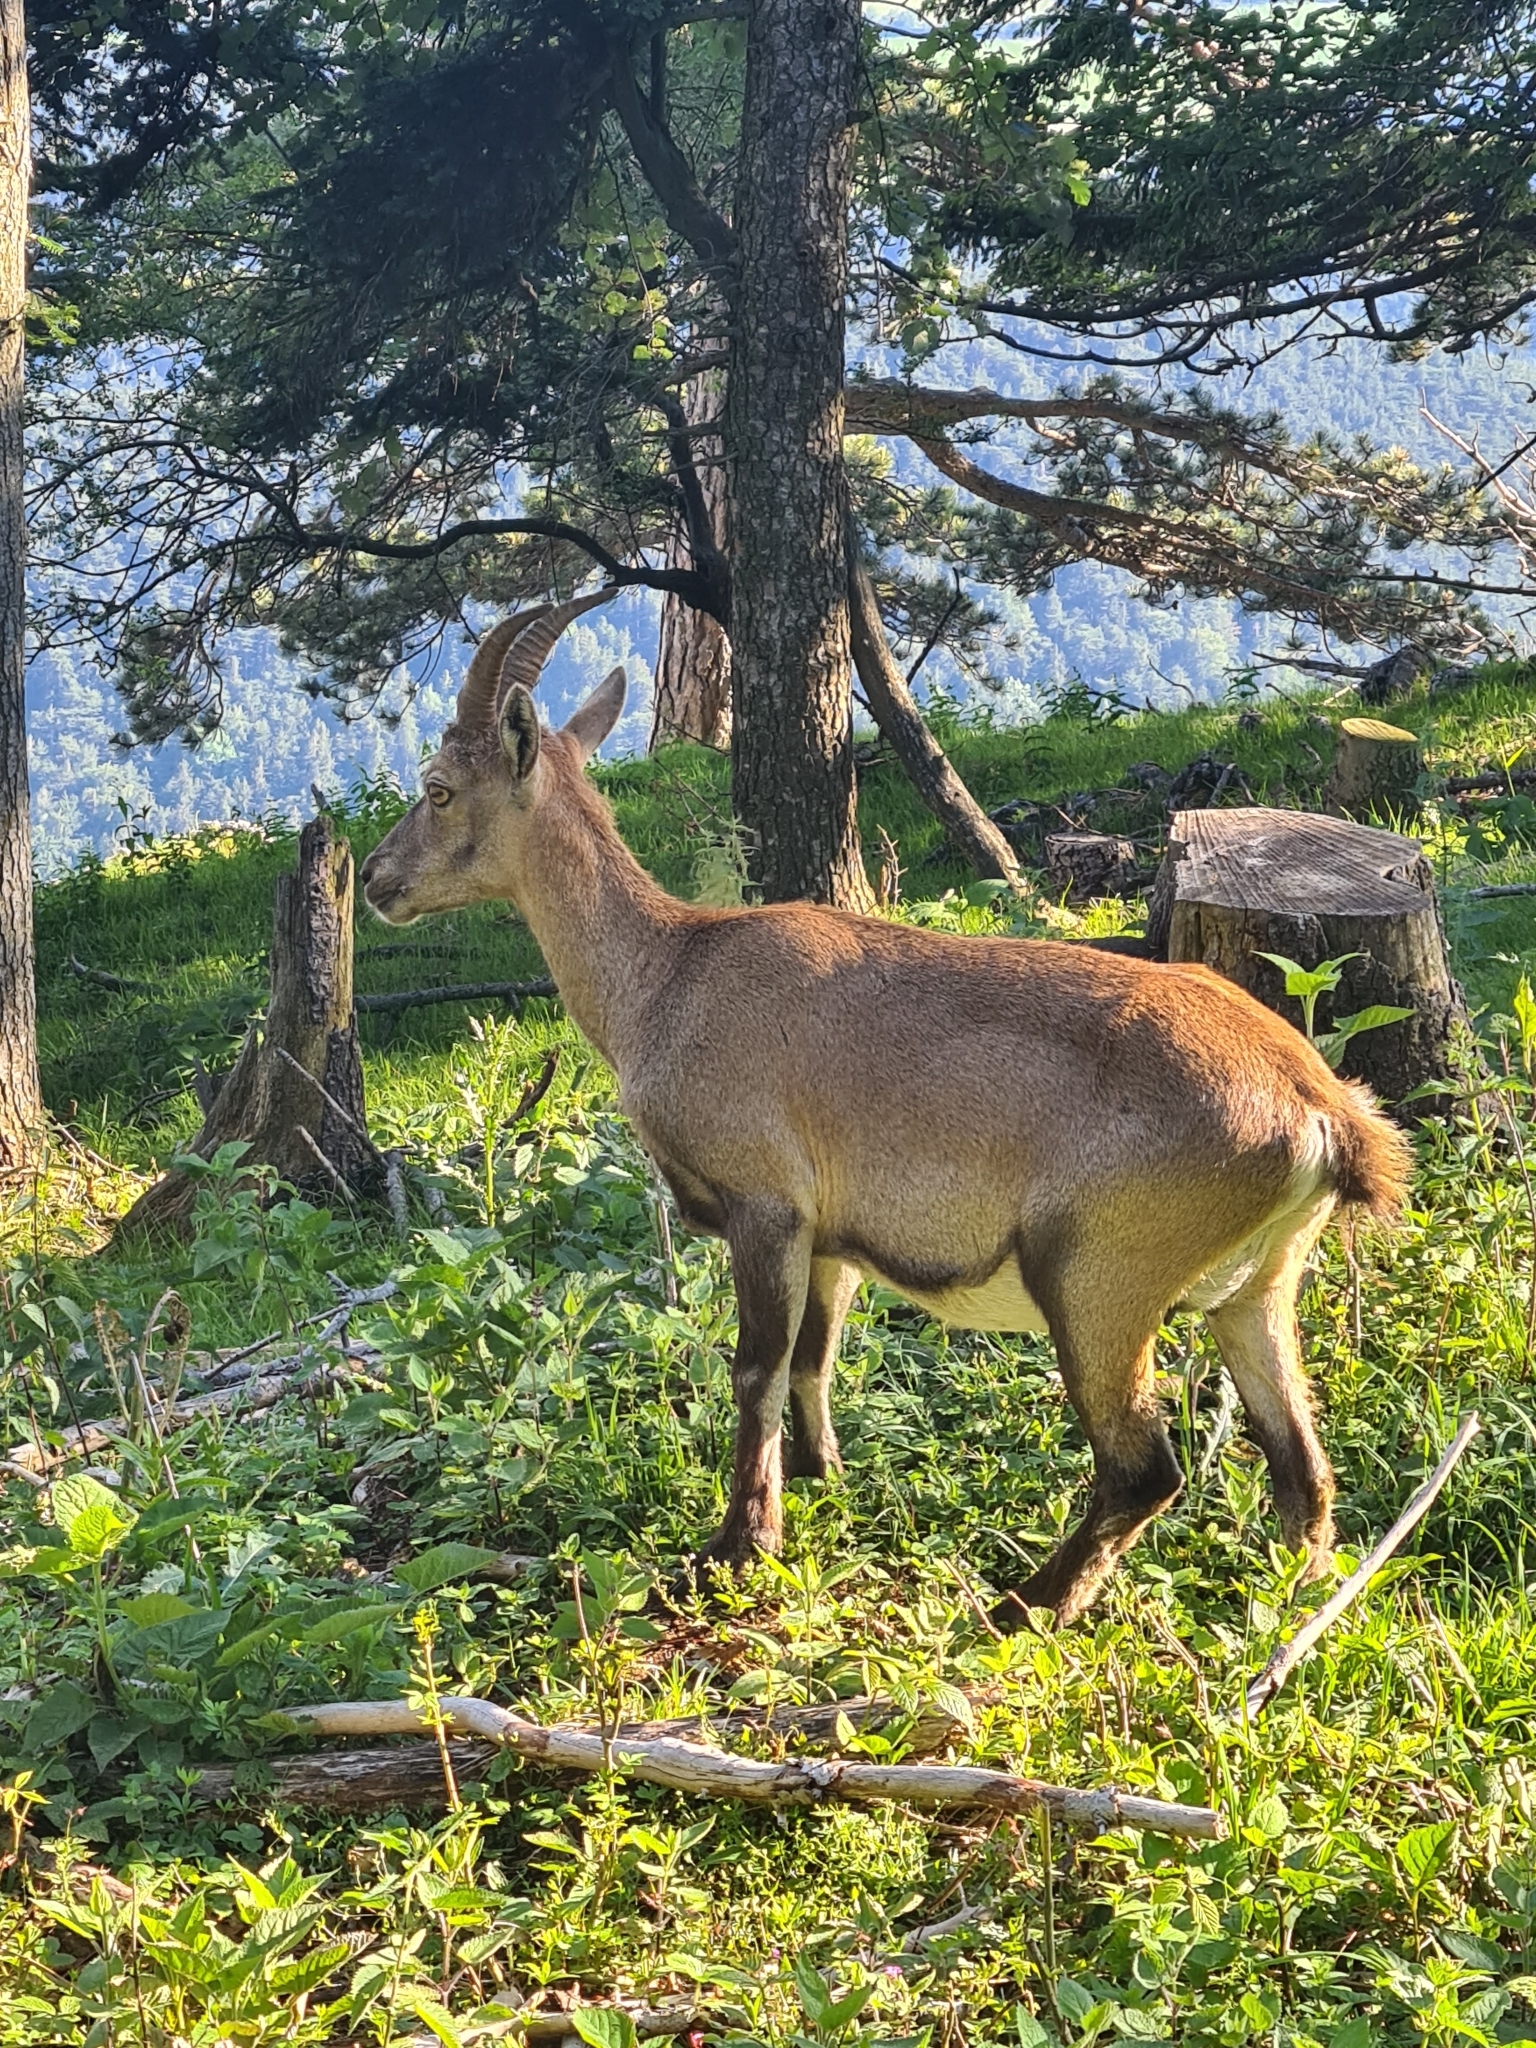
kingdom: Animalia
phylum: Chordata
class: Mammalia
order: Artiodactyla
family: Bovidae
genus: Capra
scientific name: Capra ibex
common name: Alpine ibex
